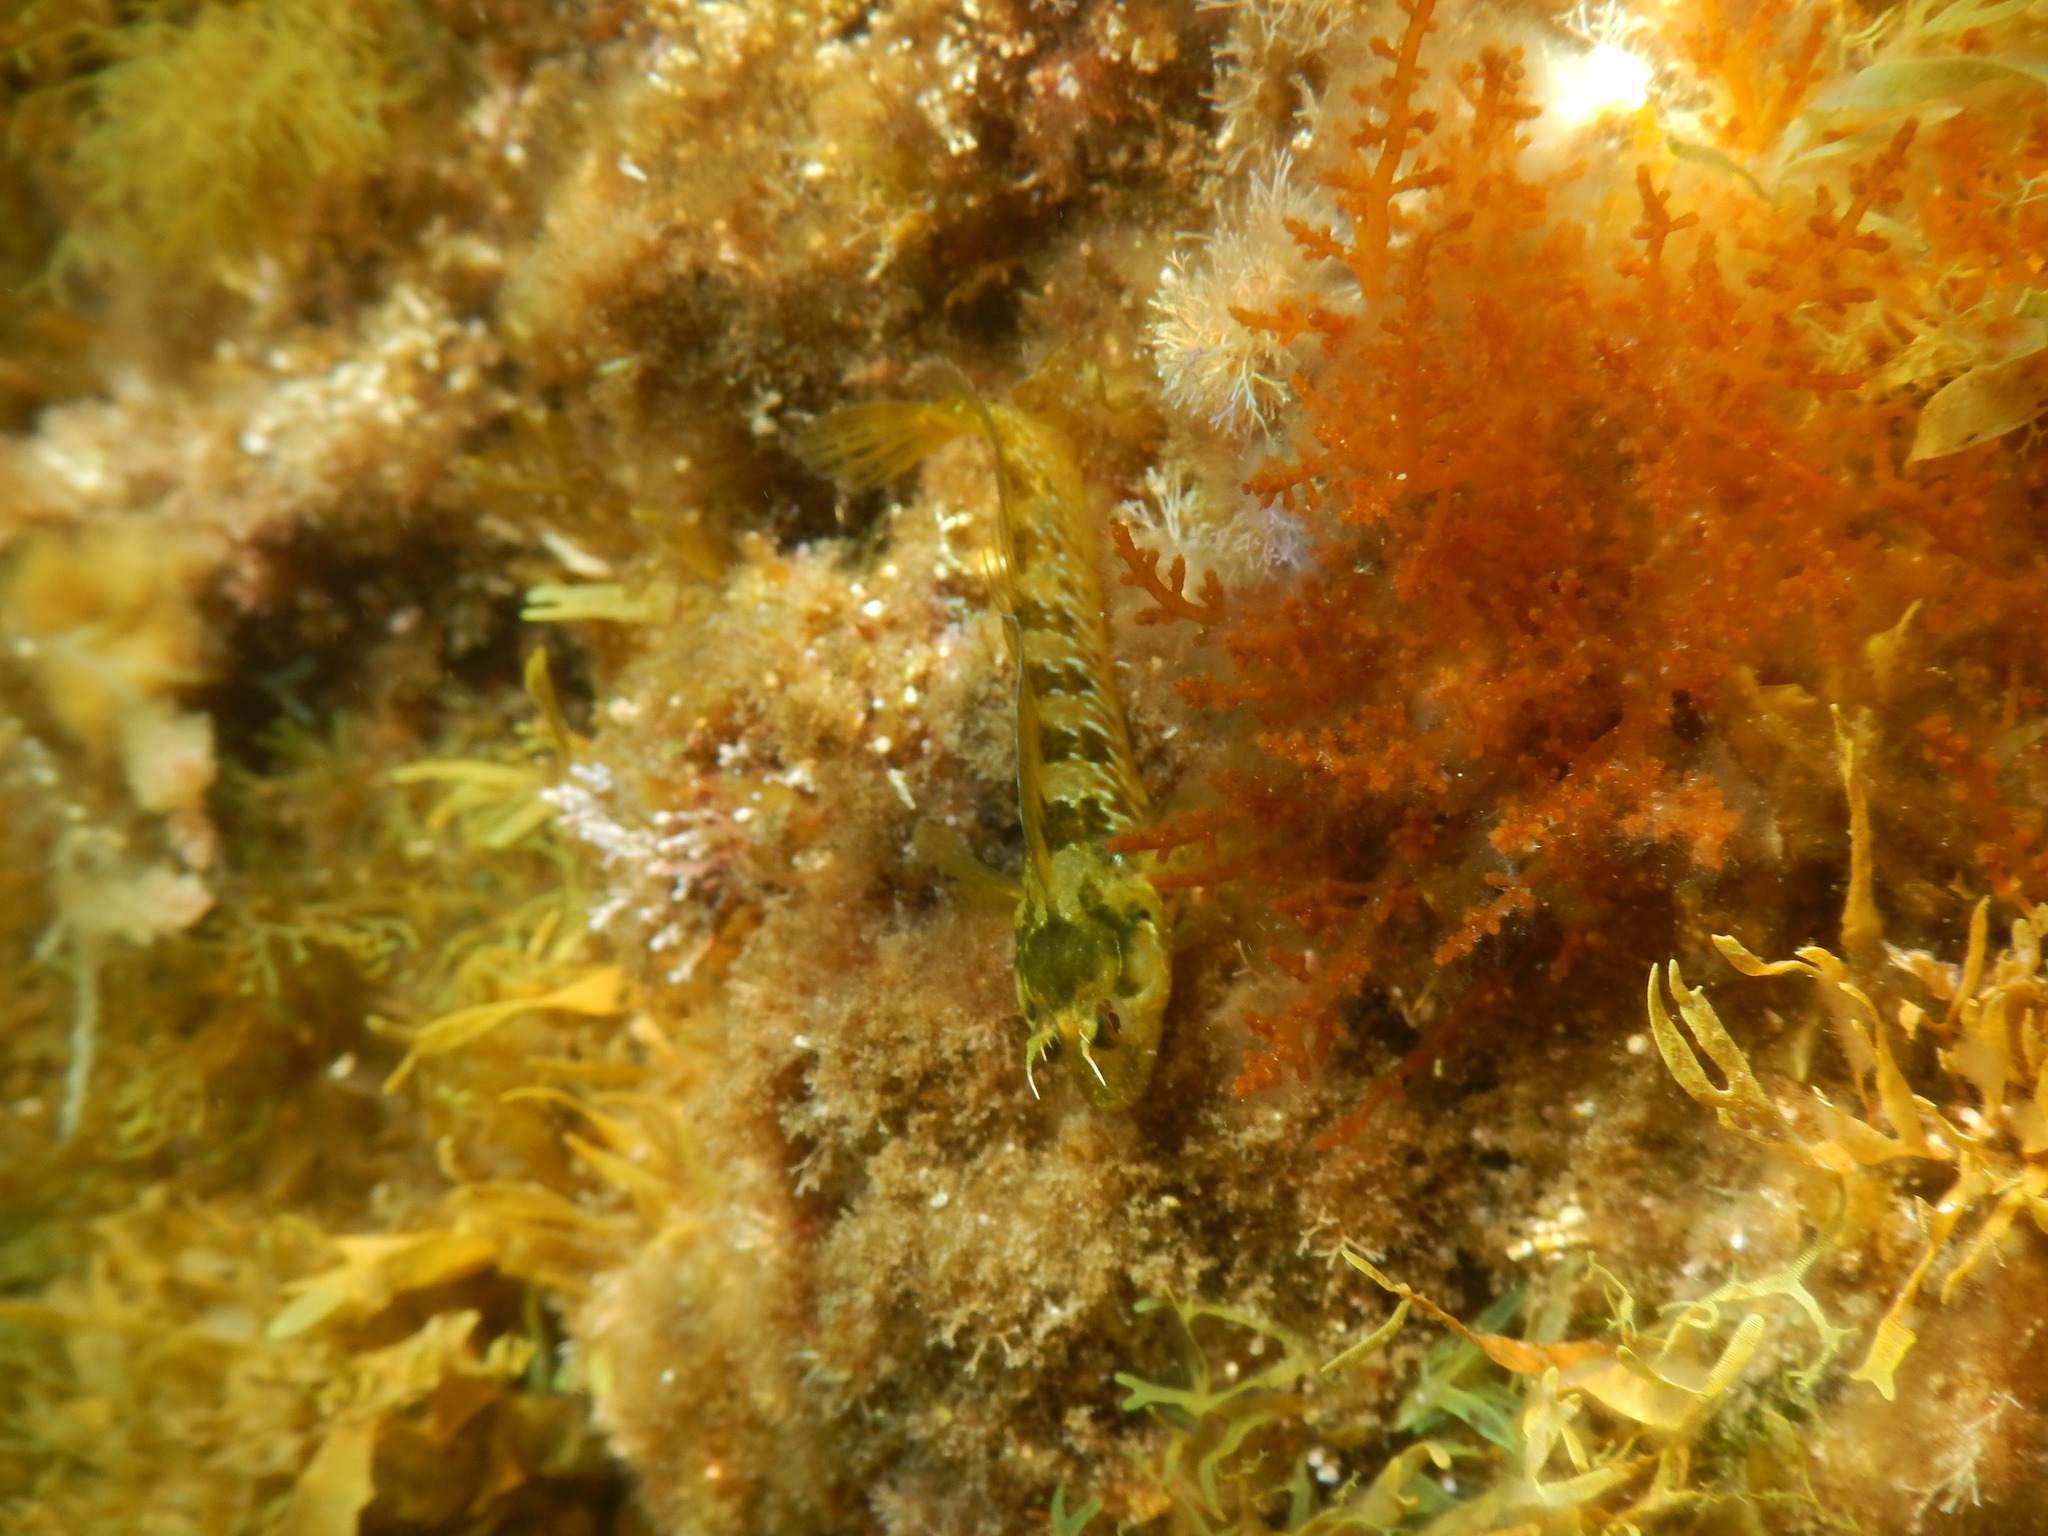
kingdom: Animalia
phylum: Chordata
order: Perciformes
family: Blenniidae
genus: Parablennius
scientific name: Parablennius incognitus
